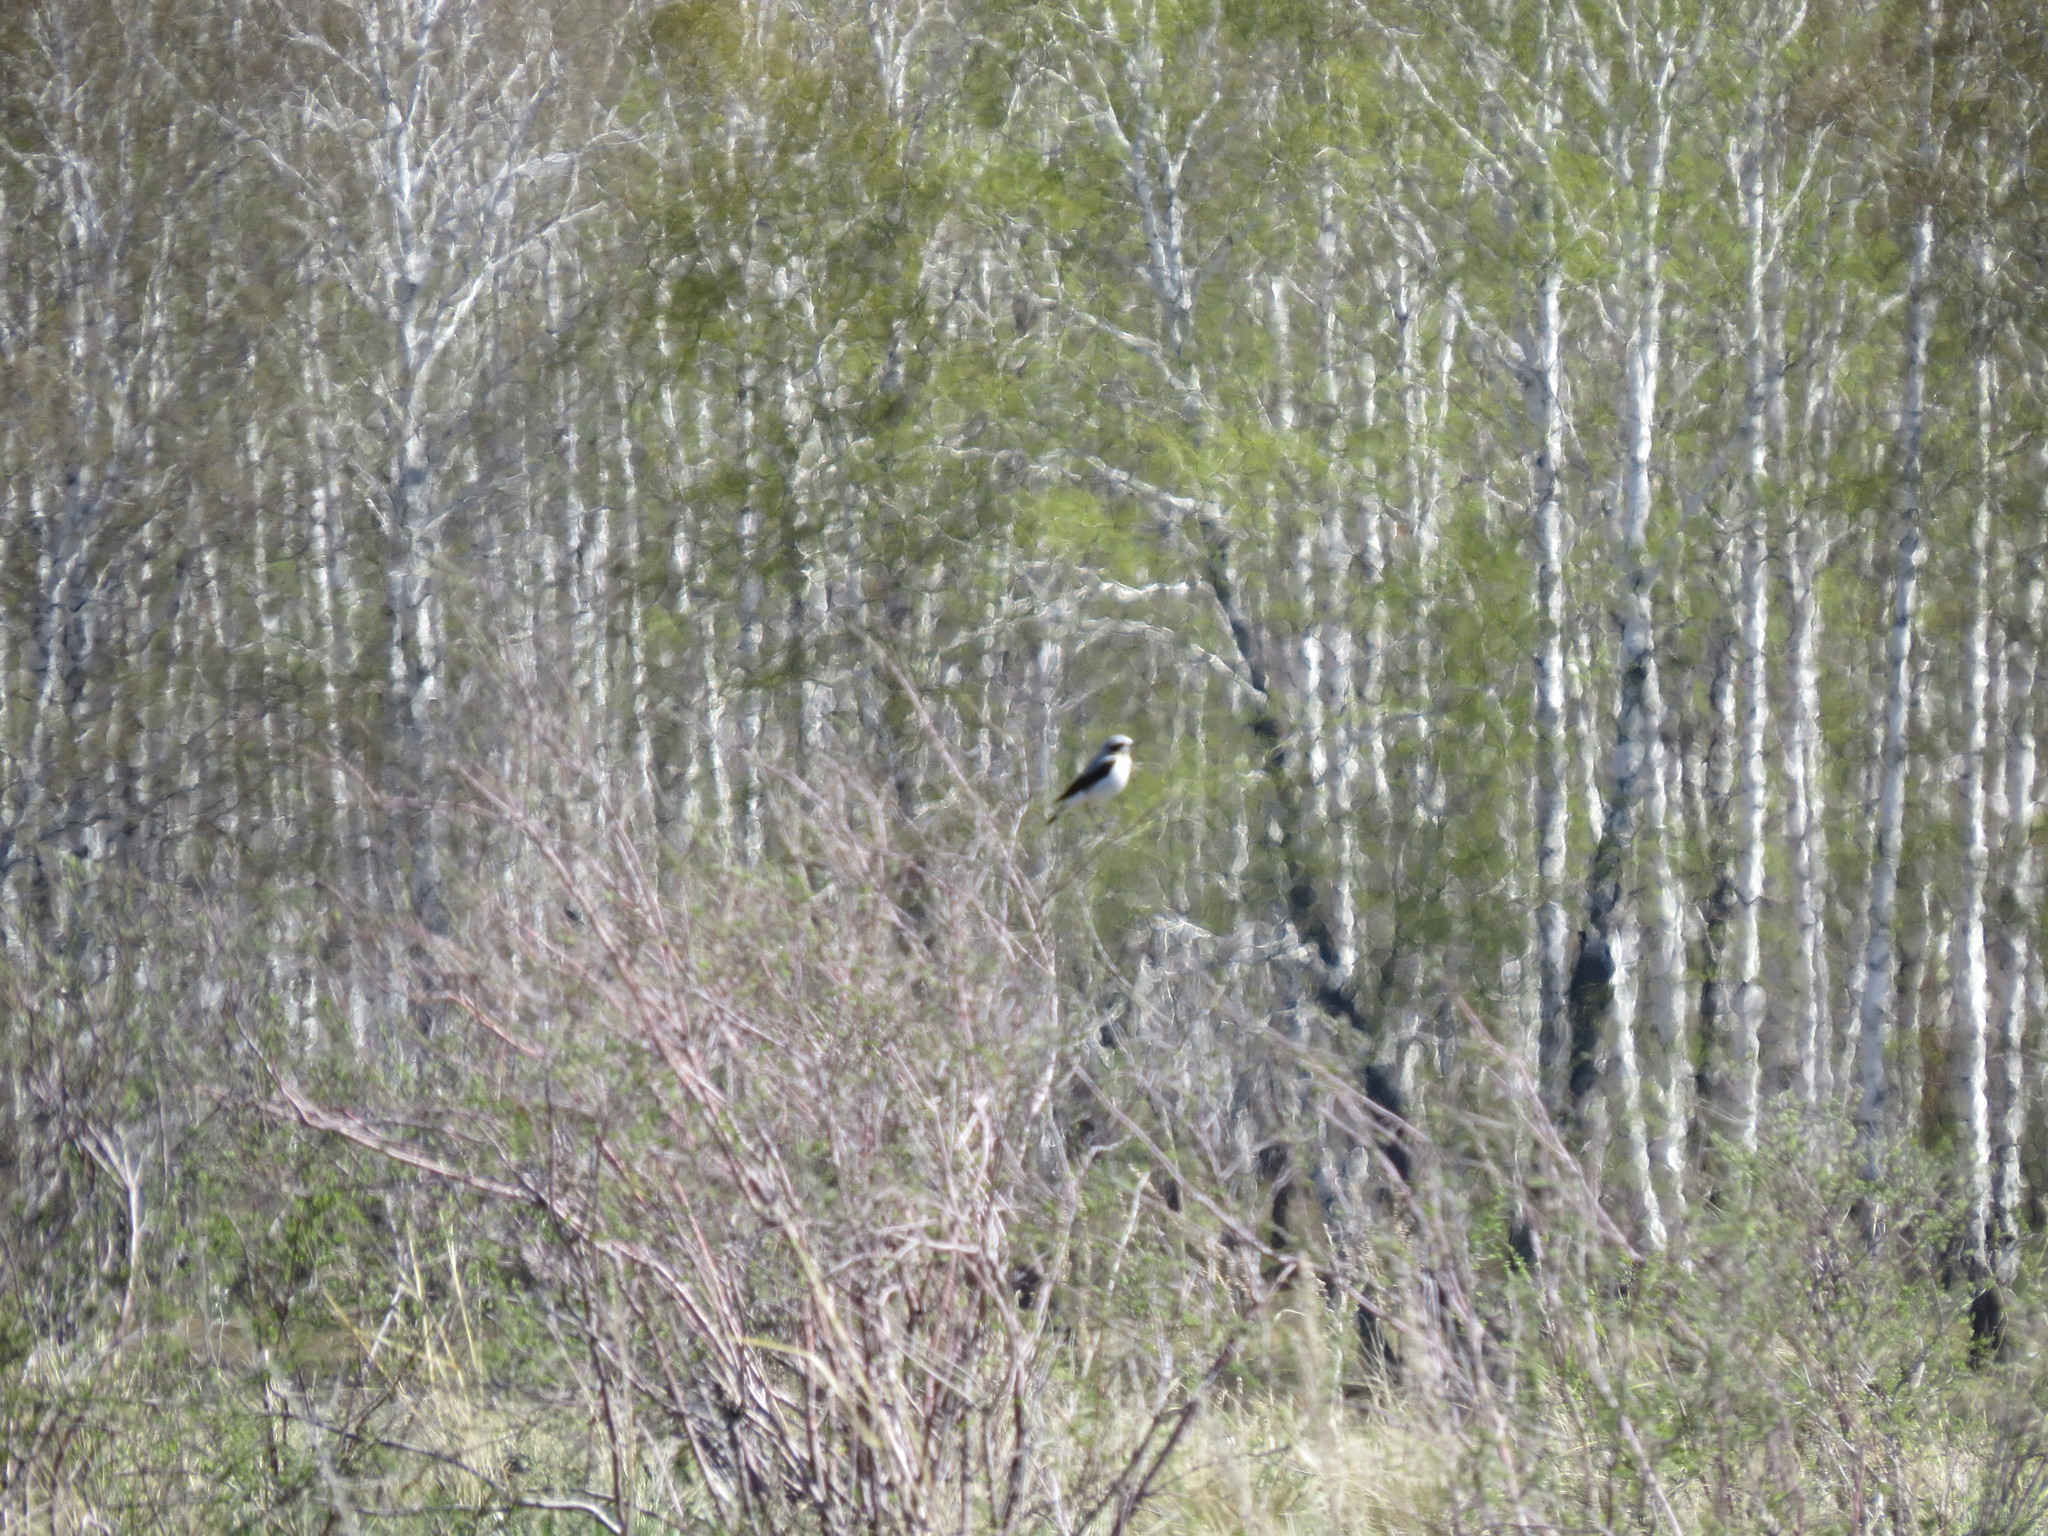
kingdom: Animalia
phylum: Chordata
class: Aves
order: Passeriformes
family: Muscicapidae
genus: Oenanthe
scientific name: Oenanthe oenanthe
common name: Northern wheatear
